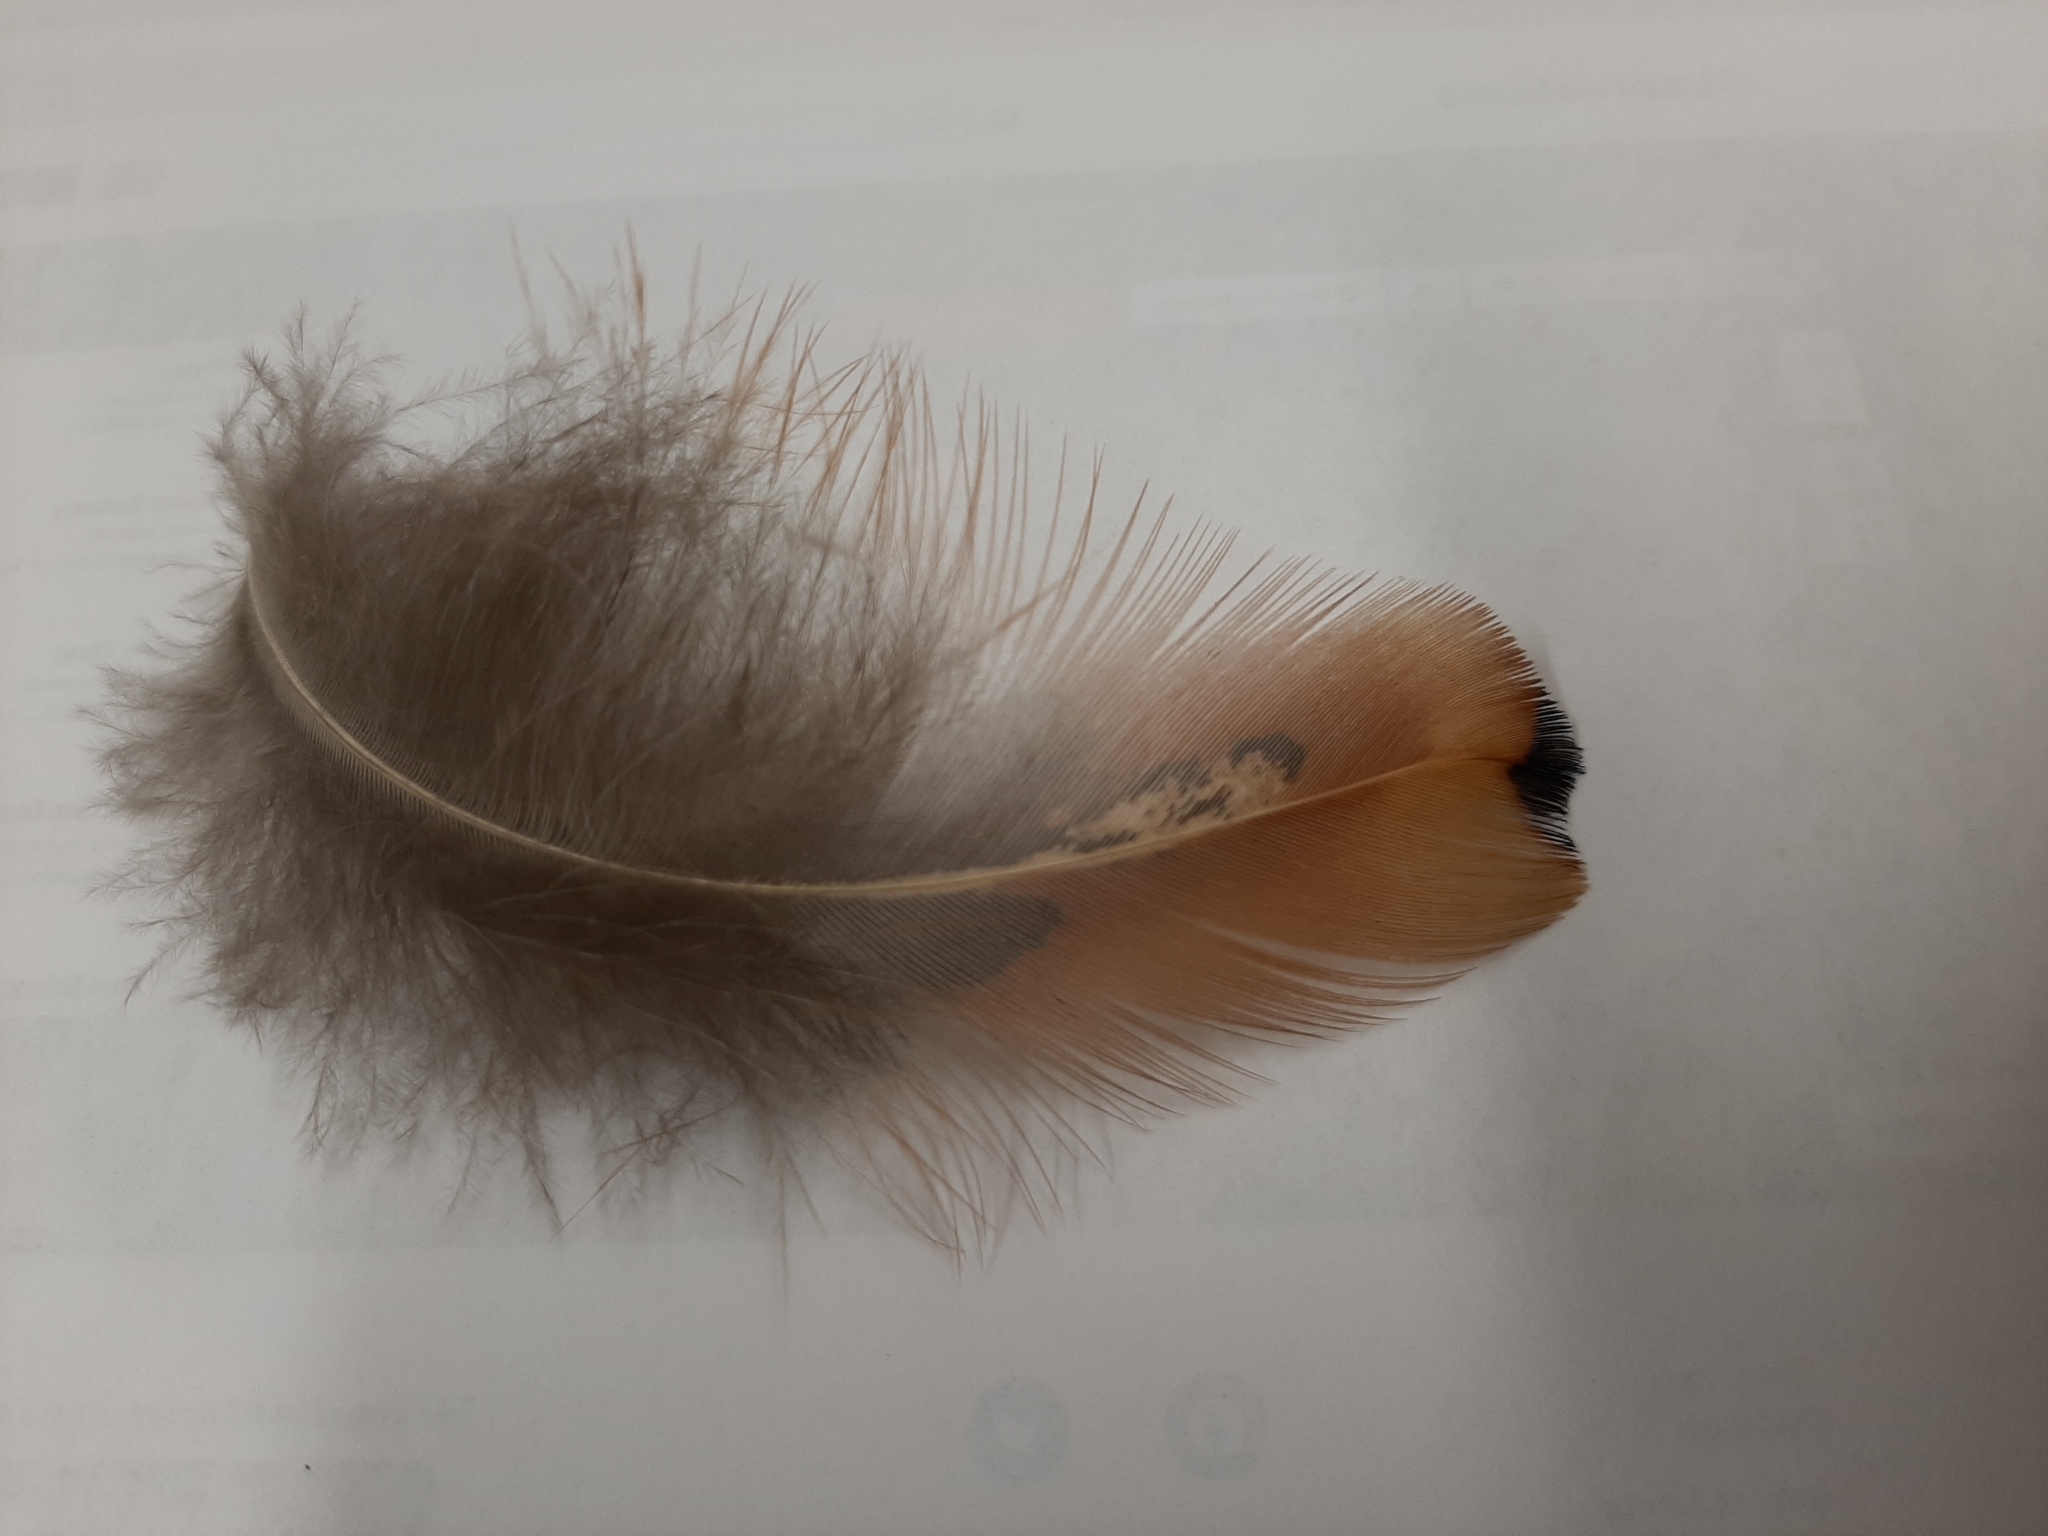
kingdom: Animalia
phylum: Chordata
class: Aves
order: Galliformes
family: Phasianidae
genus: Phasianus
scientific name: Phasianus colchicus
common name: Common pheasant
